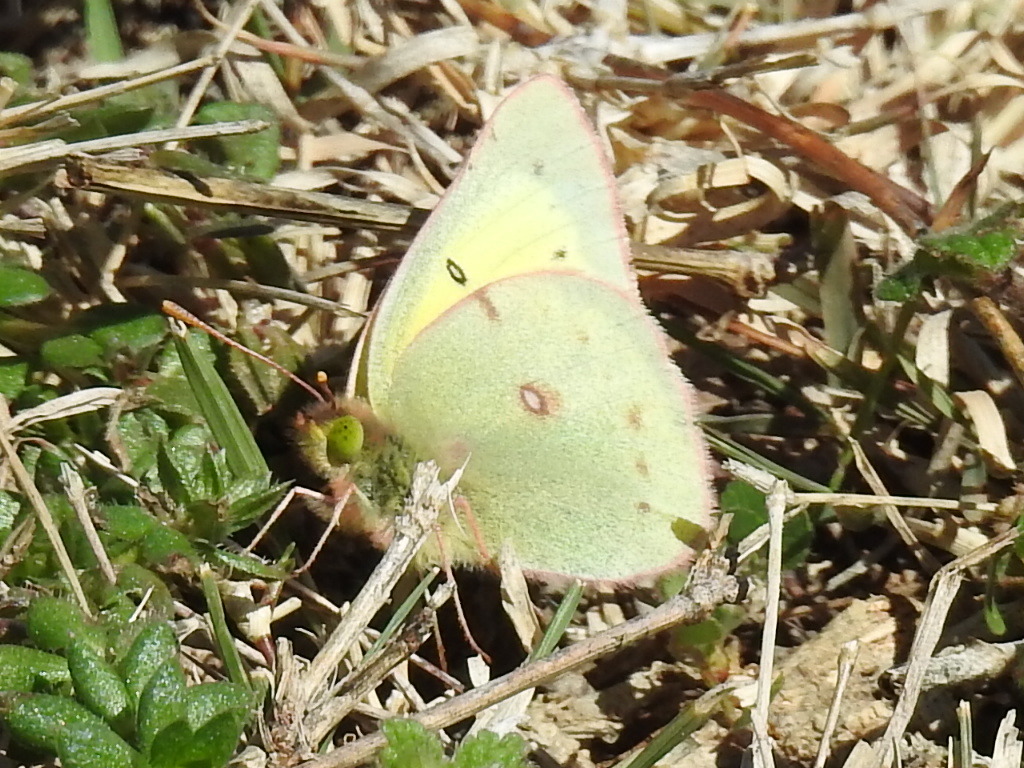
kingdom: Animalia
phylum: Arthropoda
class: Insecta
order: Lepidoptera
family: Pieridae
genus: Colias
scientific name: Colias eurytheme
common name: Alfalfa butterfly
